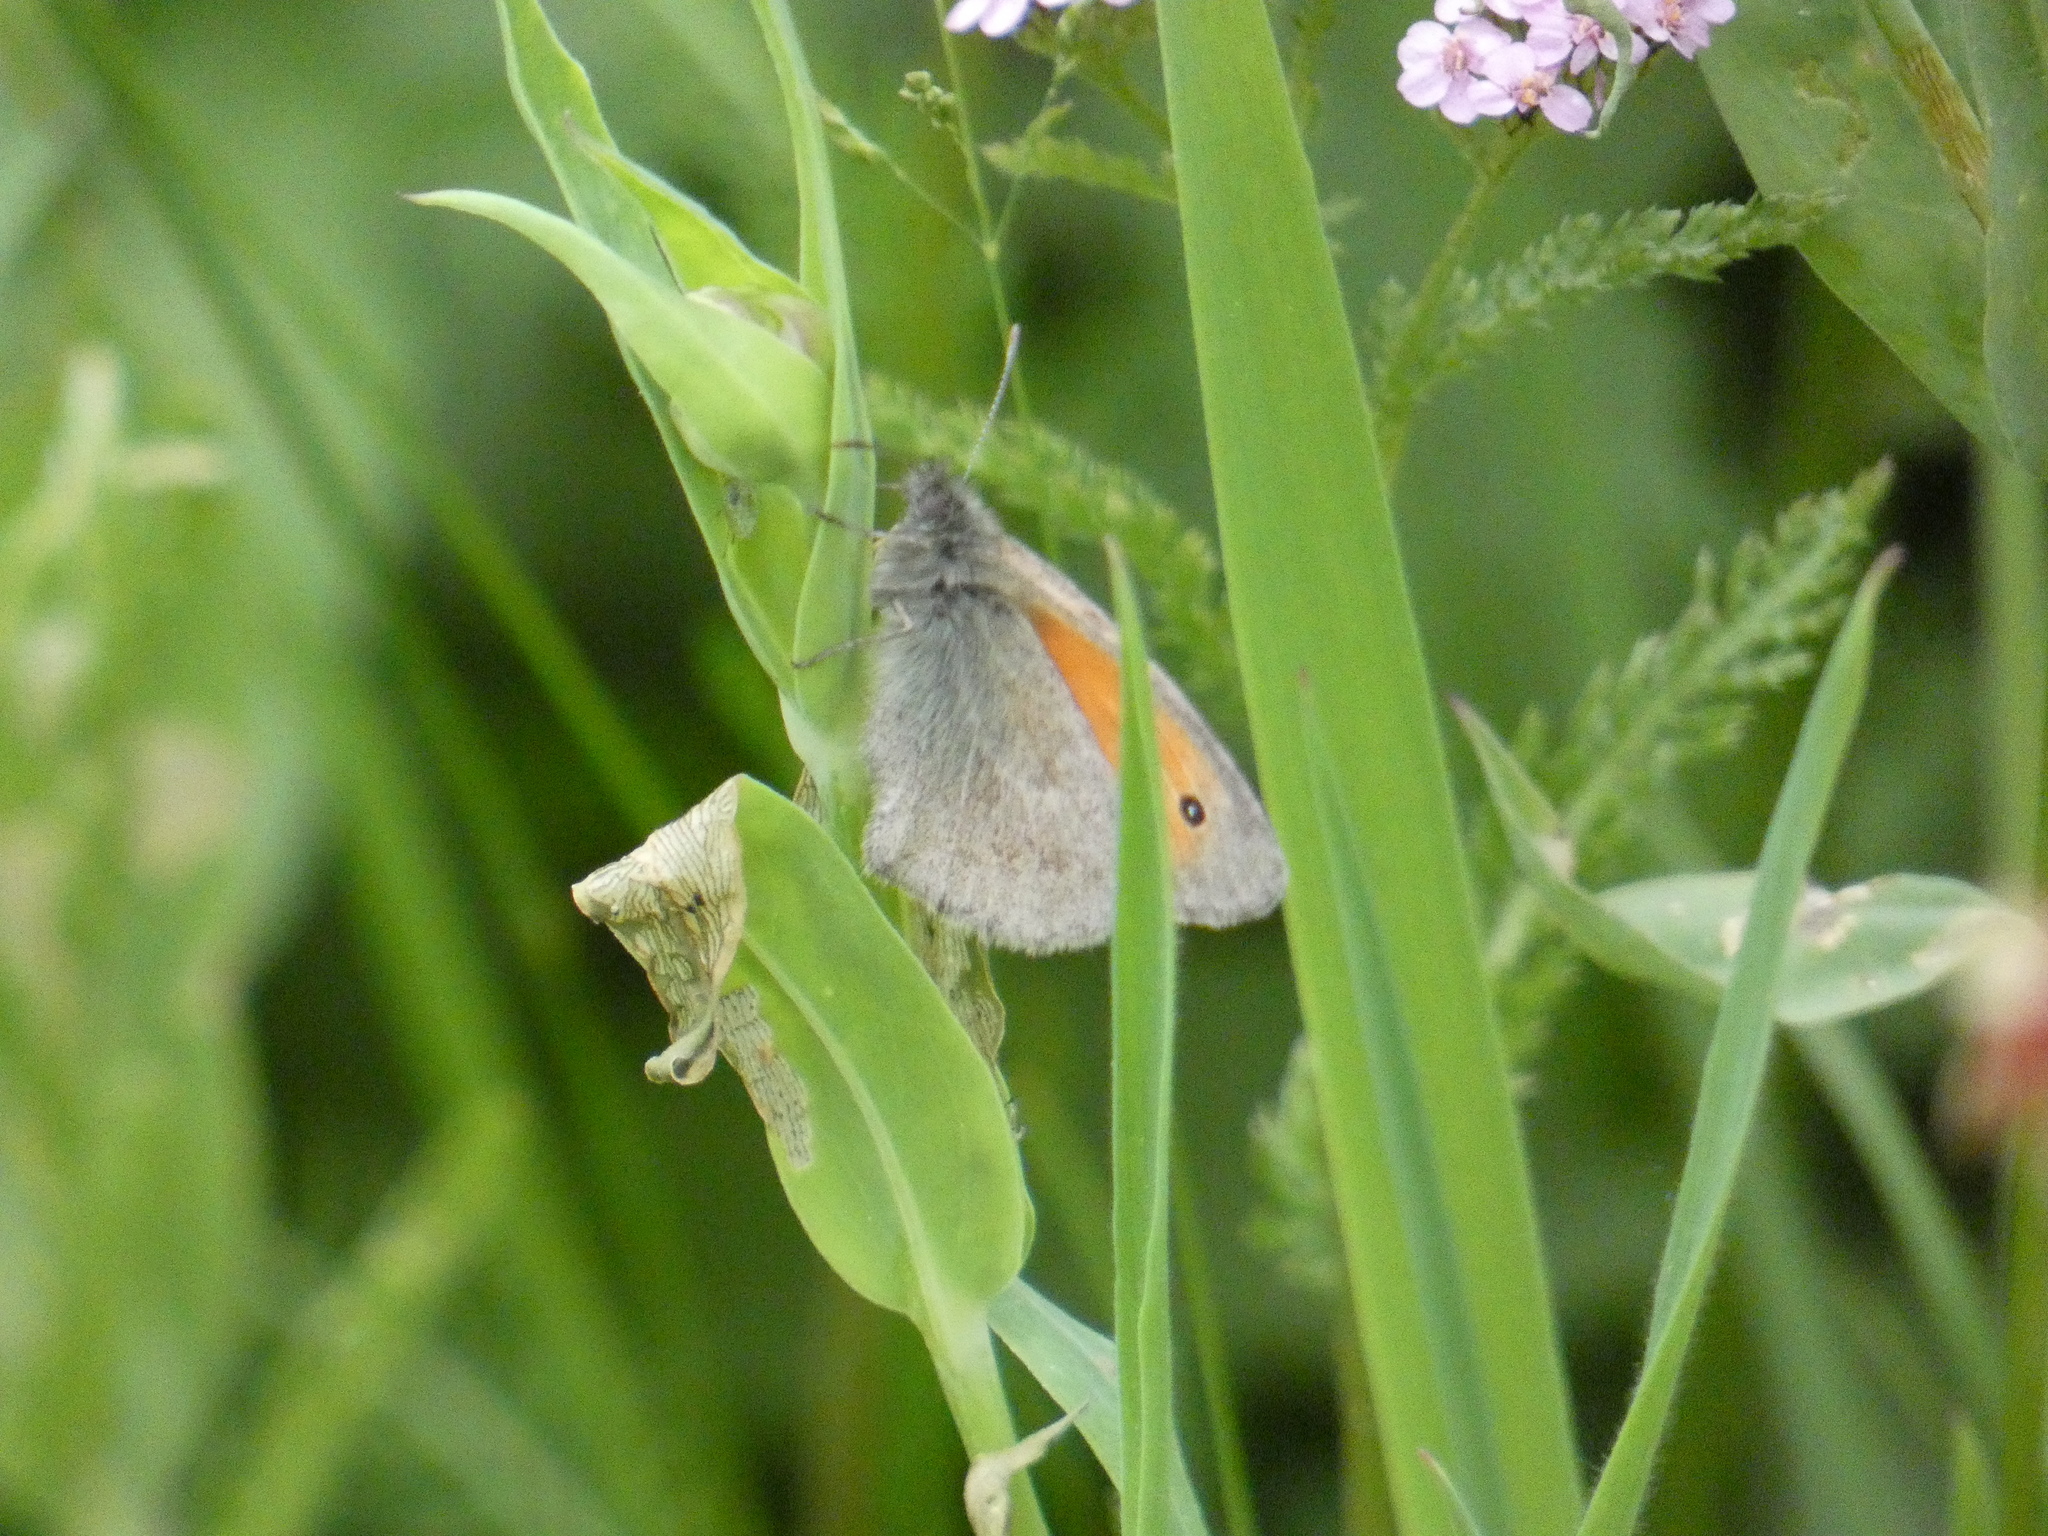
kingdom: Animalia
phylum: Arthropoda
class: Insecta
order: Lepidoptera
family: Nymphalidae
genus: Coenonympha
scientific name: Coenonympha pamphilus
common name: Small heath
